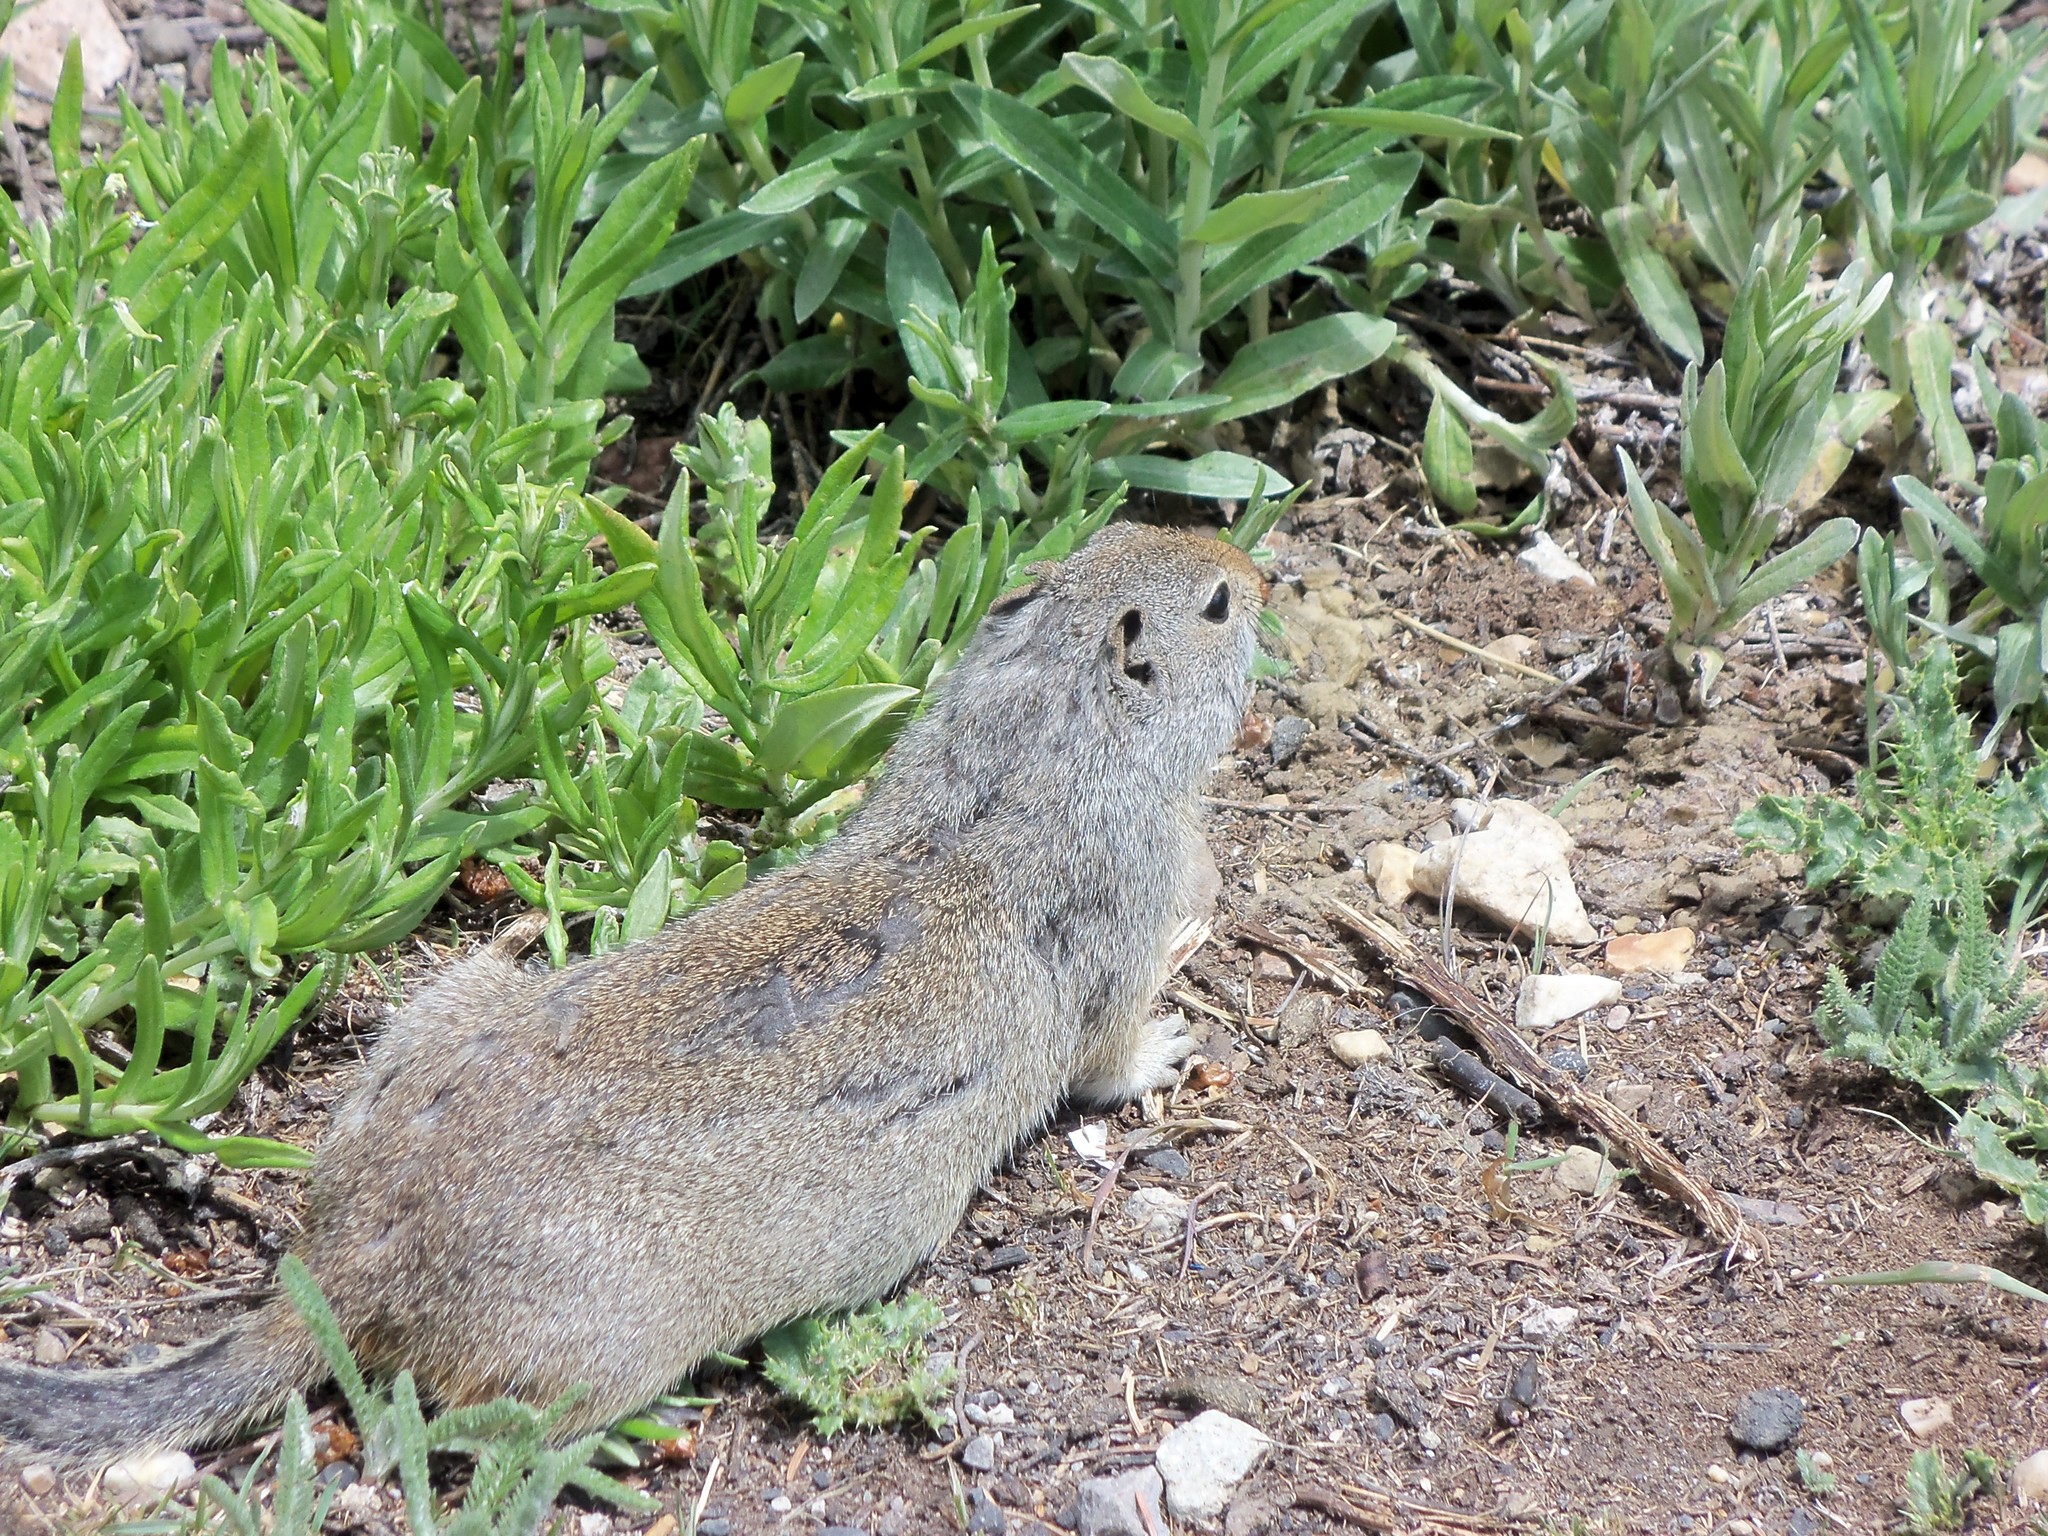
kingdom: Animalia
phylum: Chordata
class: Mammalia
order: Rodentia
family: Sciuridae
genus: Urocitellus
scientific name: Urocitellus armatus
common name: Uinta ground squirrel
